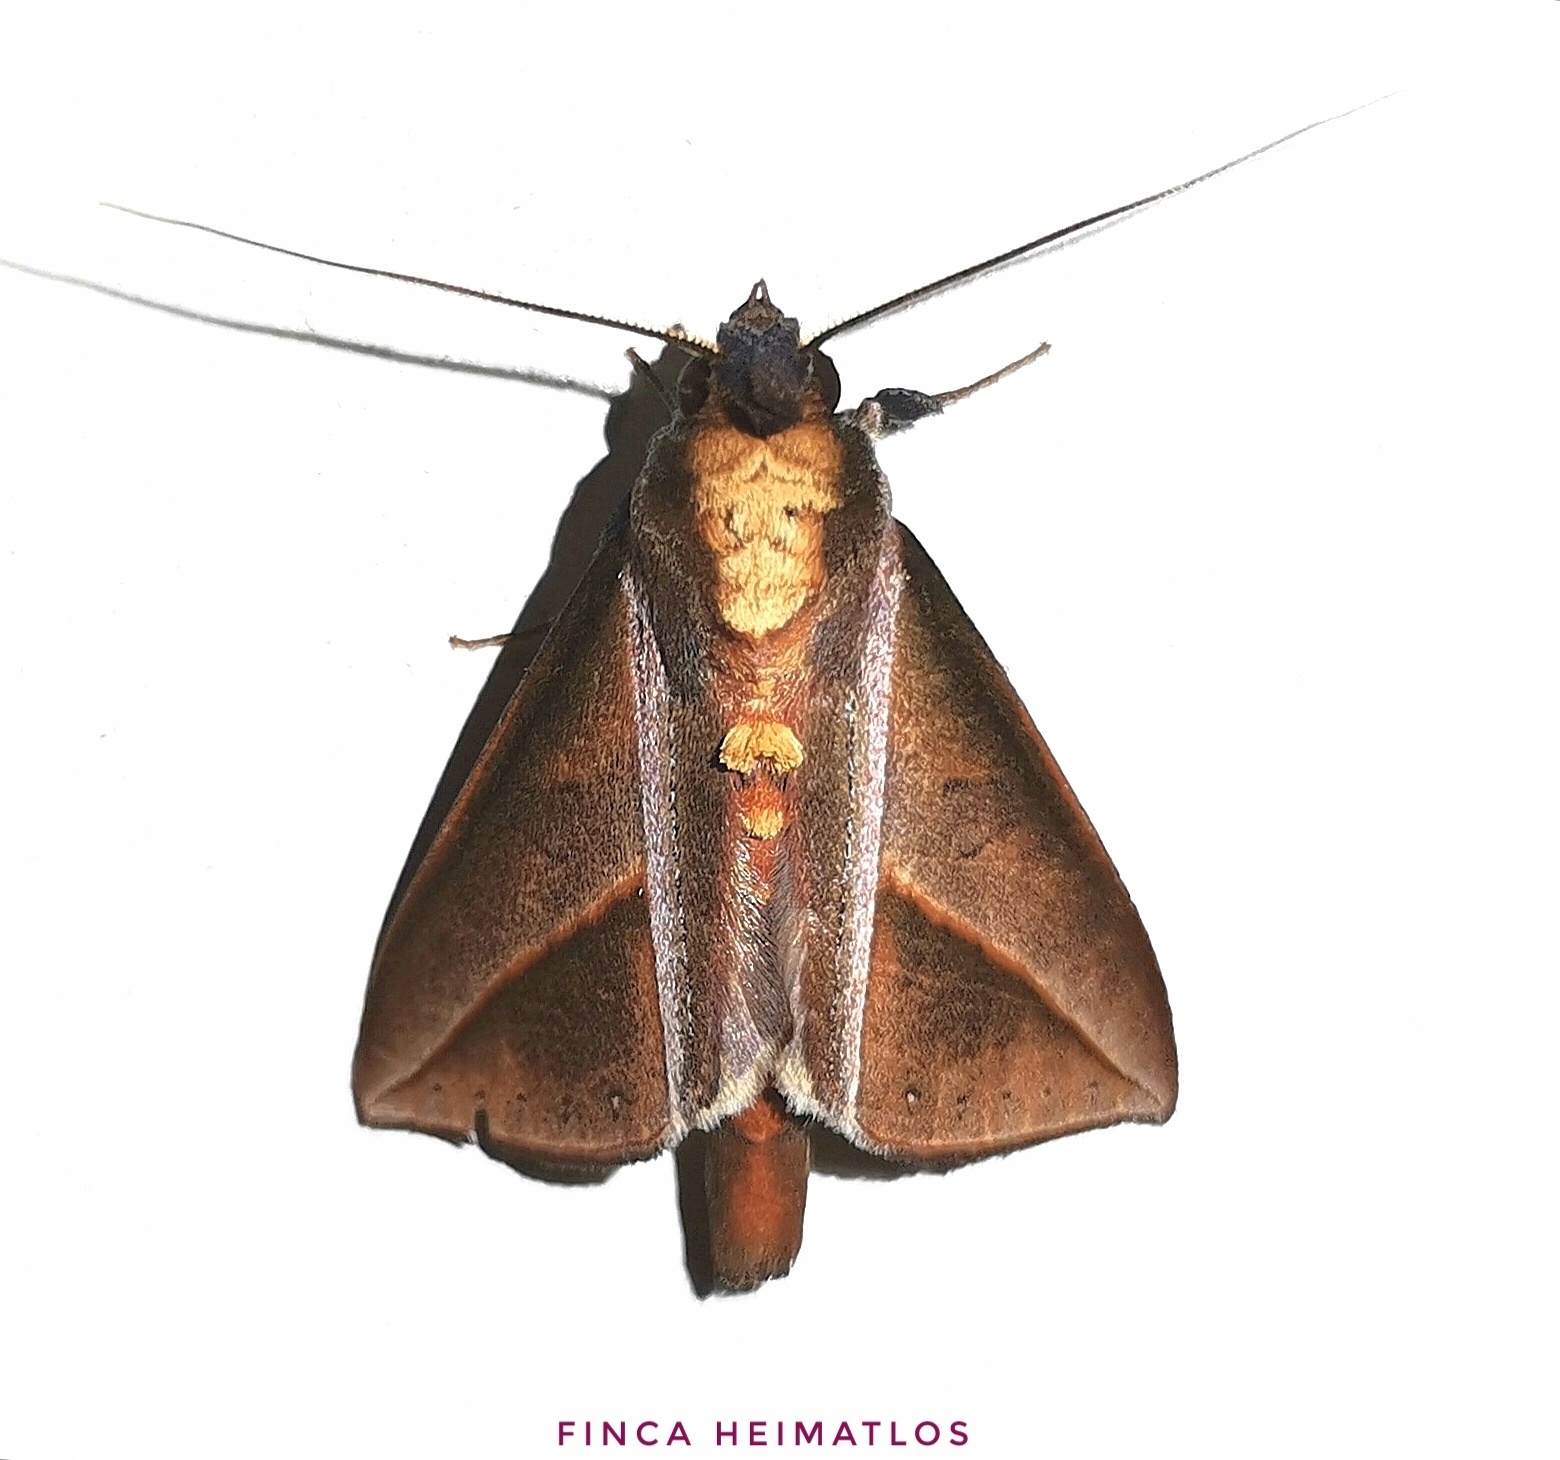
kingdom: Animalia
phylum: Arthropoda
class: Insecta
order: Lepidoptera
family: Notodontidae
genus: Strophocerus
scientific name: Strophocerus sericea
